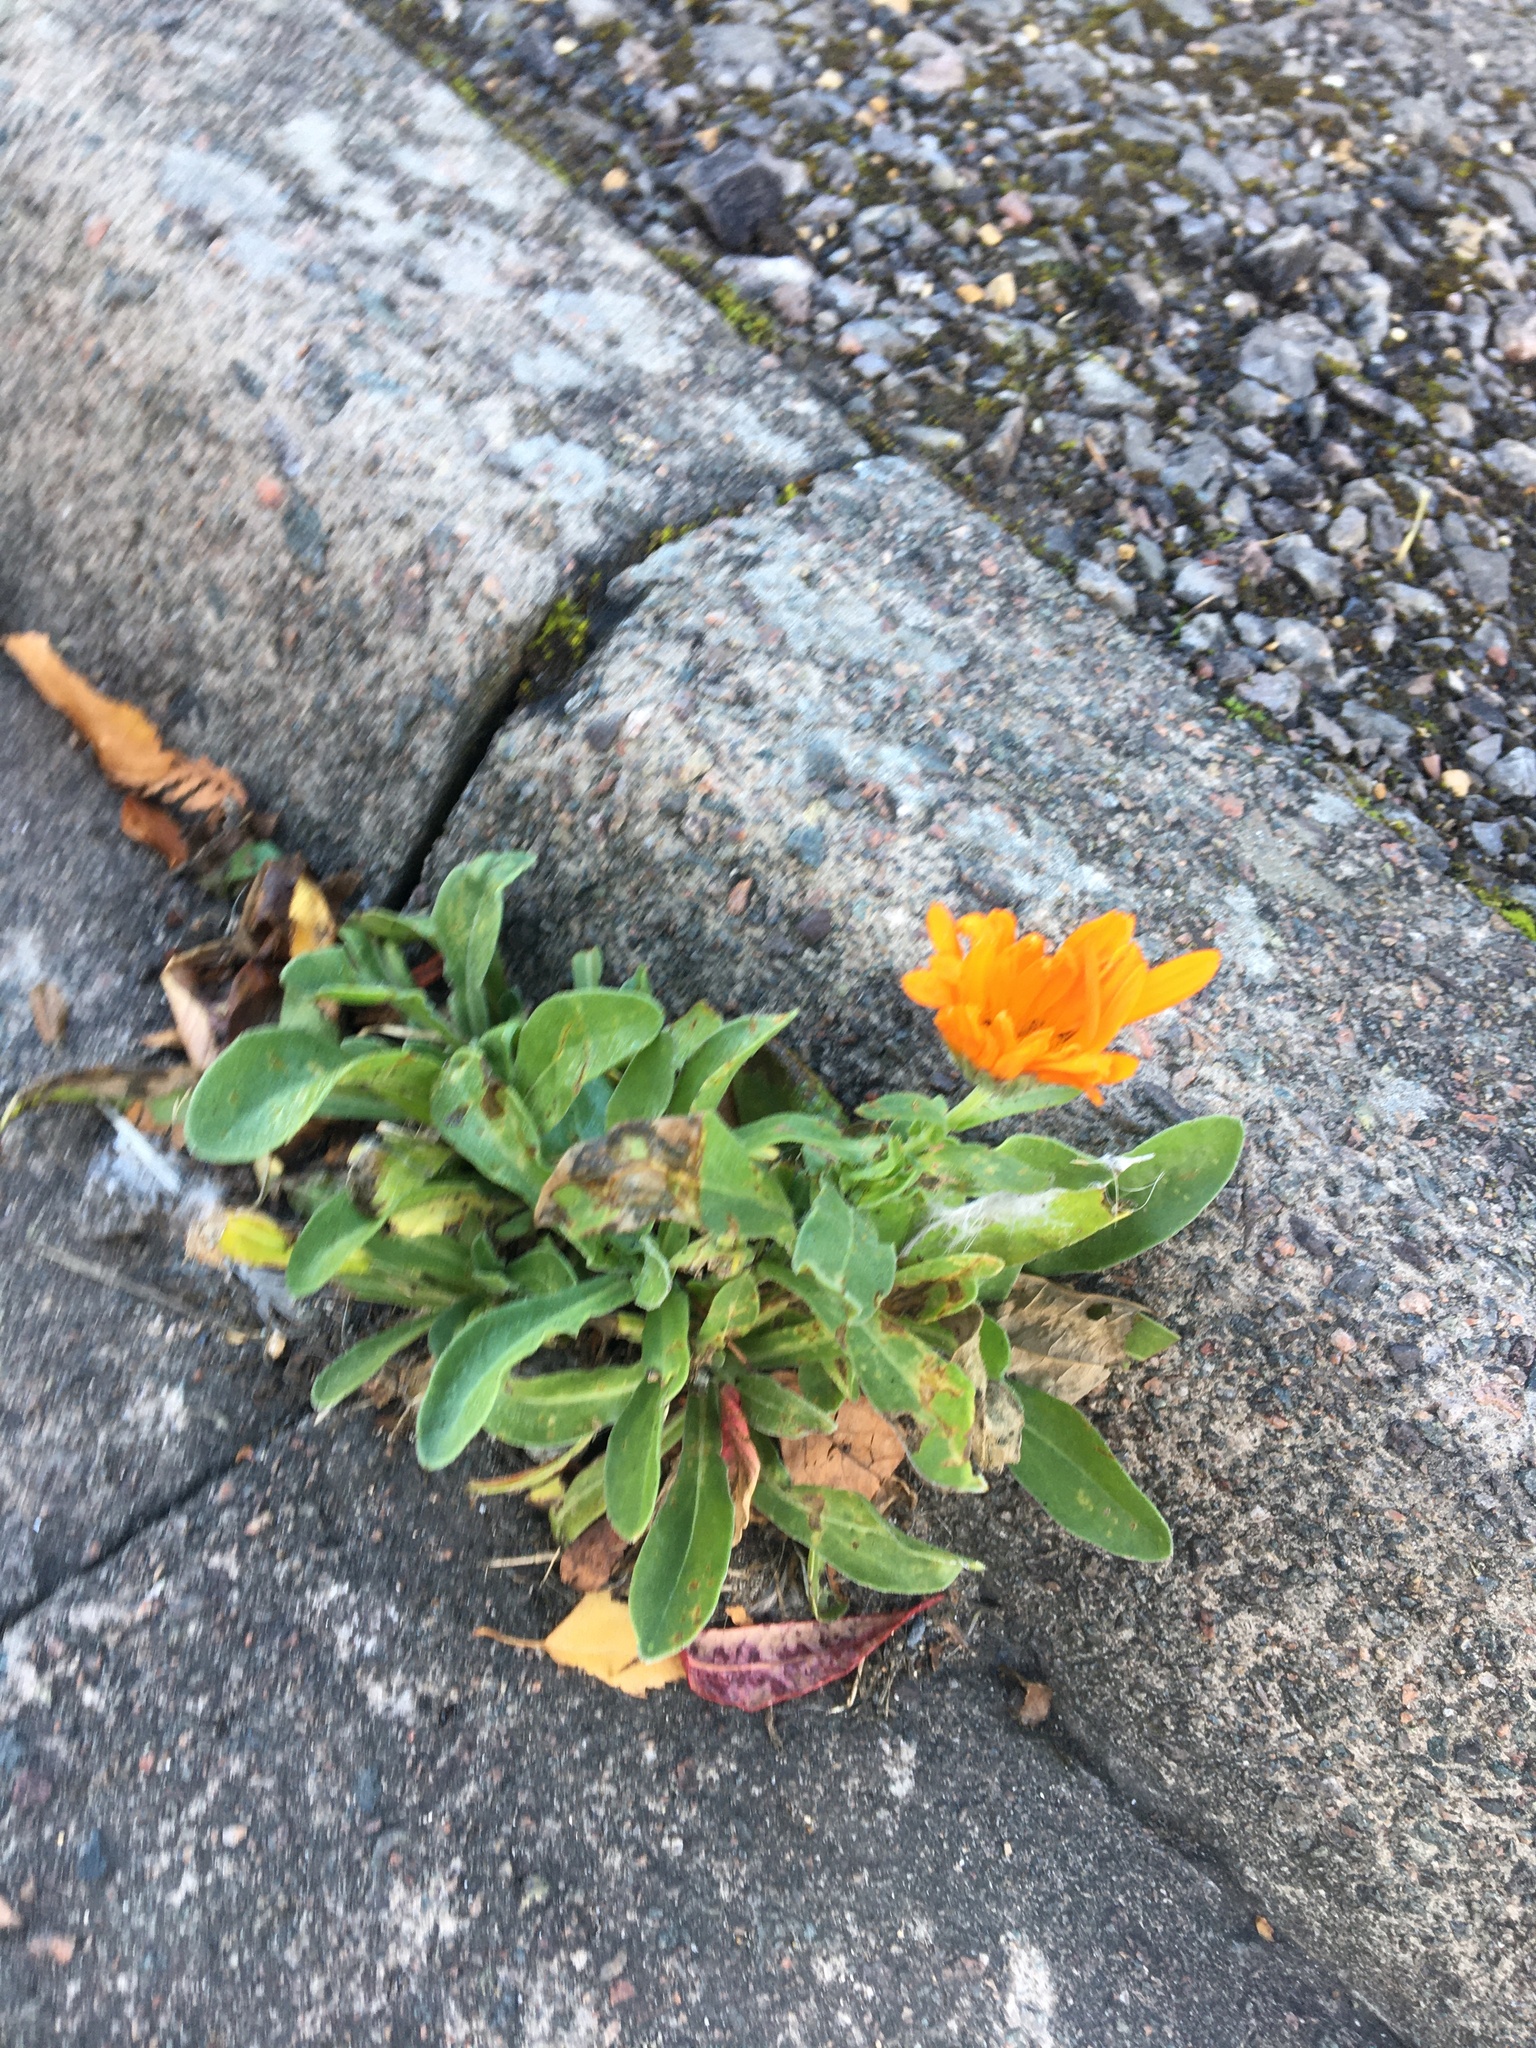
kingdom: Plantae
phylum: Tracheophyta
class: Magnoliopsida
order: Asterales
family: Asteraceae
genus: Calendula
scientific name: Calendula officinalis
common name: Pot marigold
